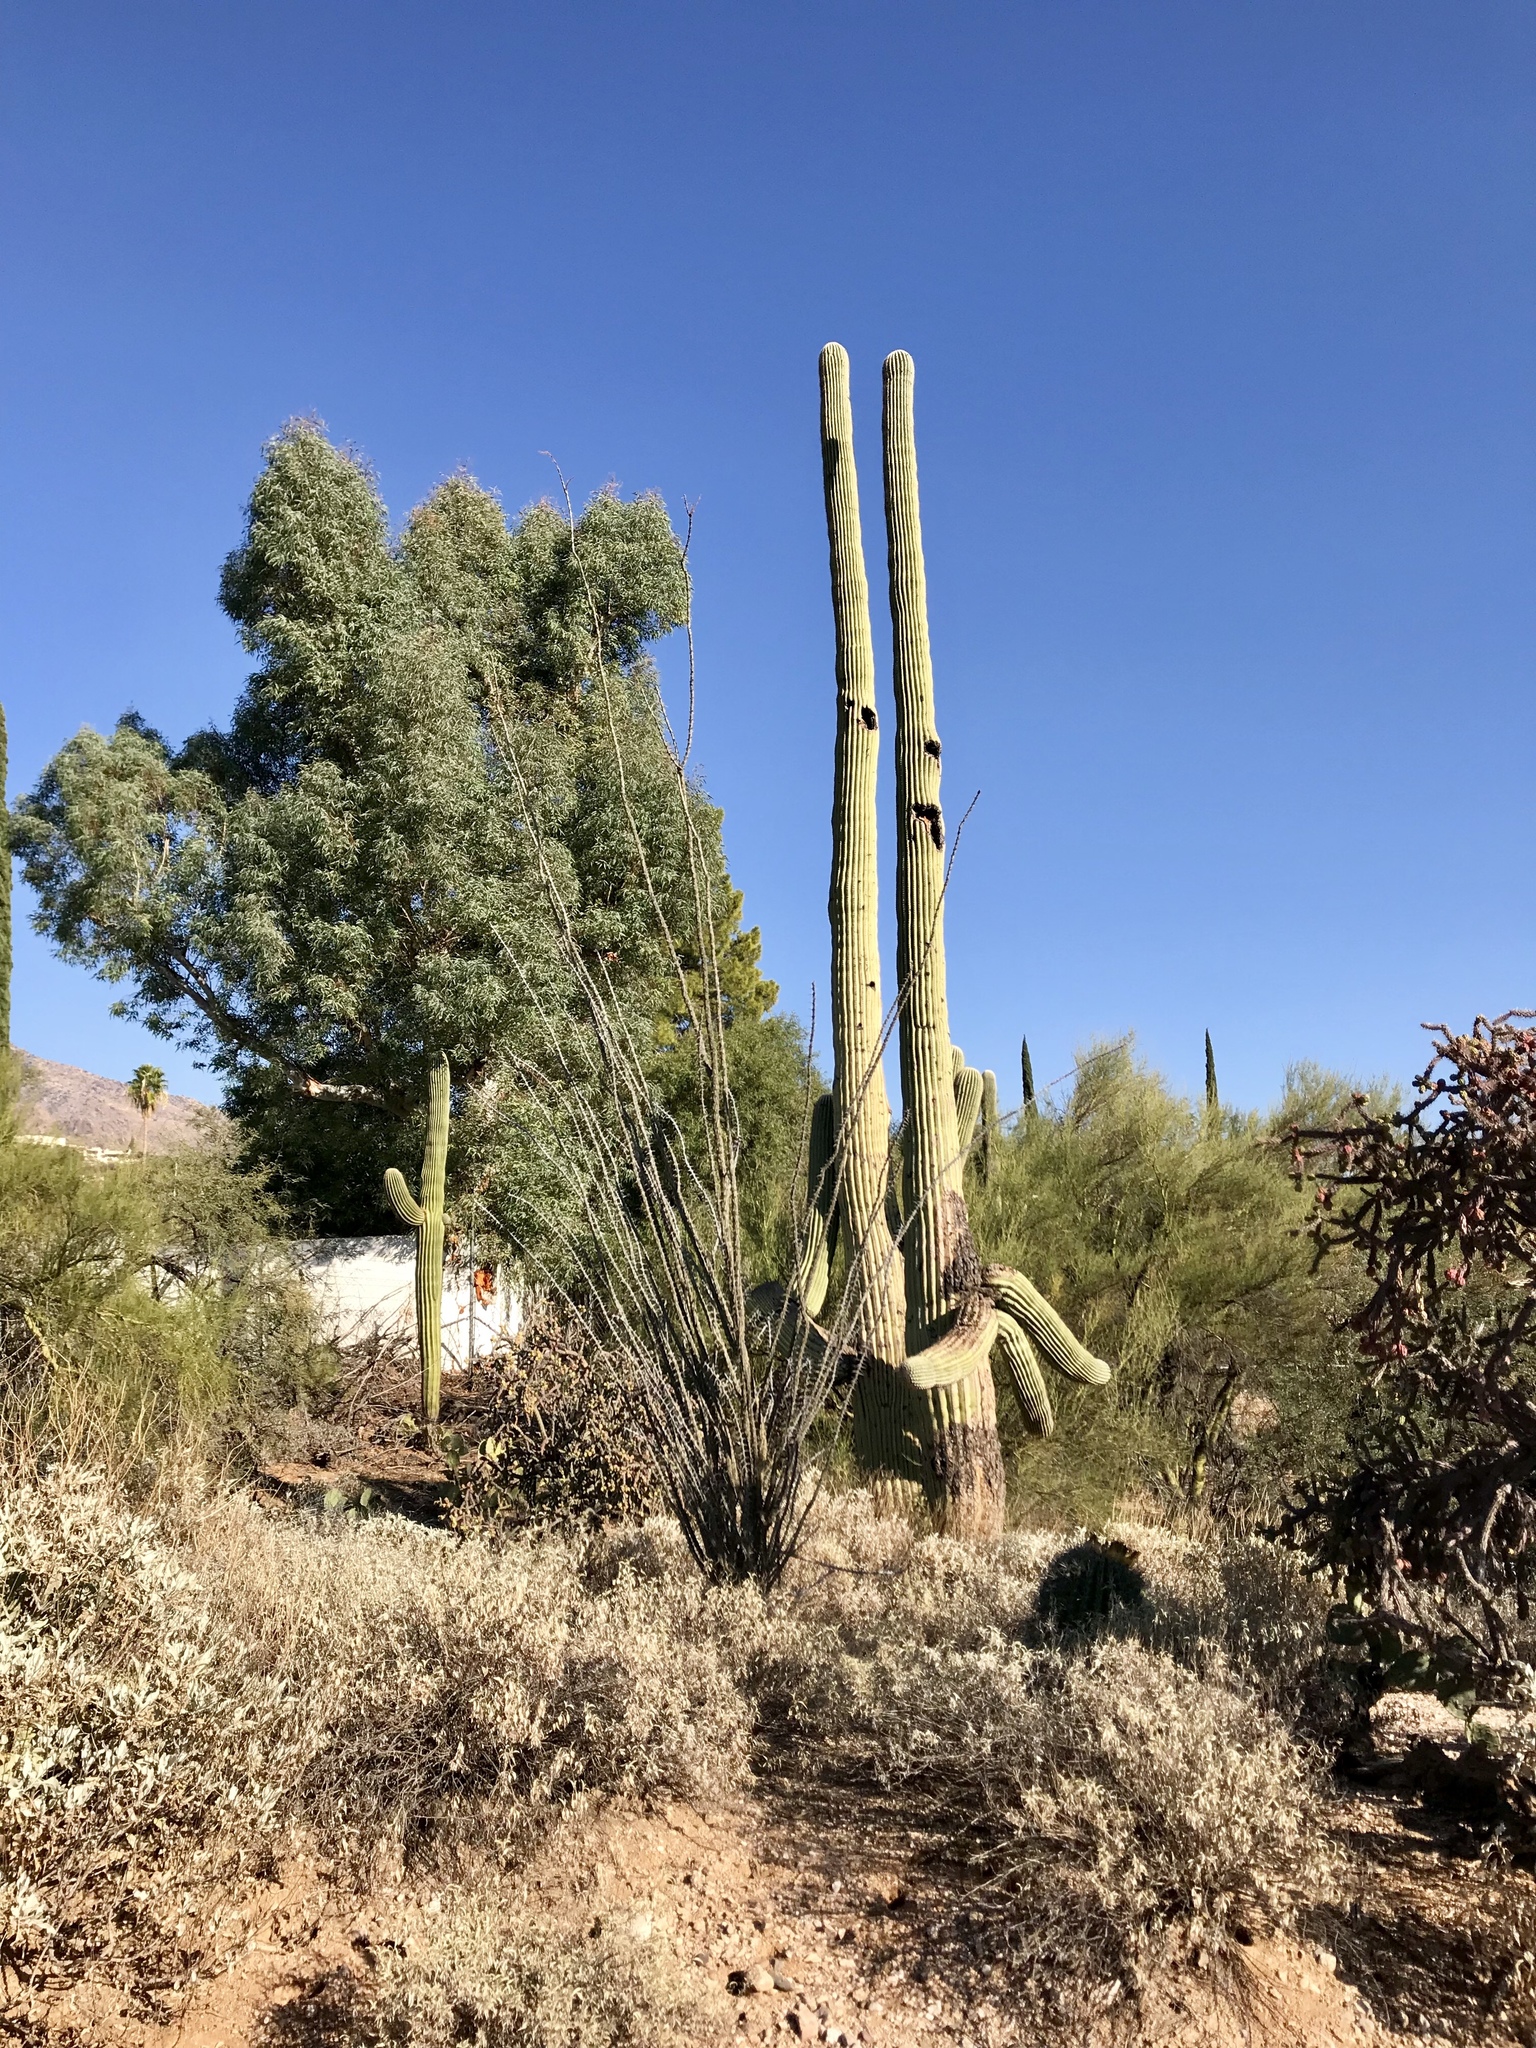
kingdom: Plantae
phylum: Tracheophyta
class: Magnoliopsida
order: Caryophyllales
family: Cactaceae
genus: Carnegiea
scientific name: Carnegiea gigantea
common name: Saguaro
